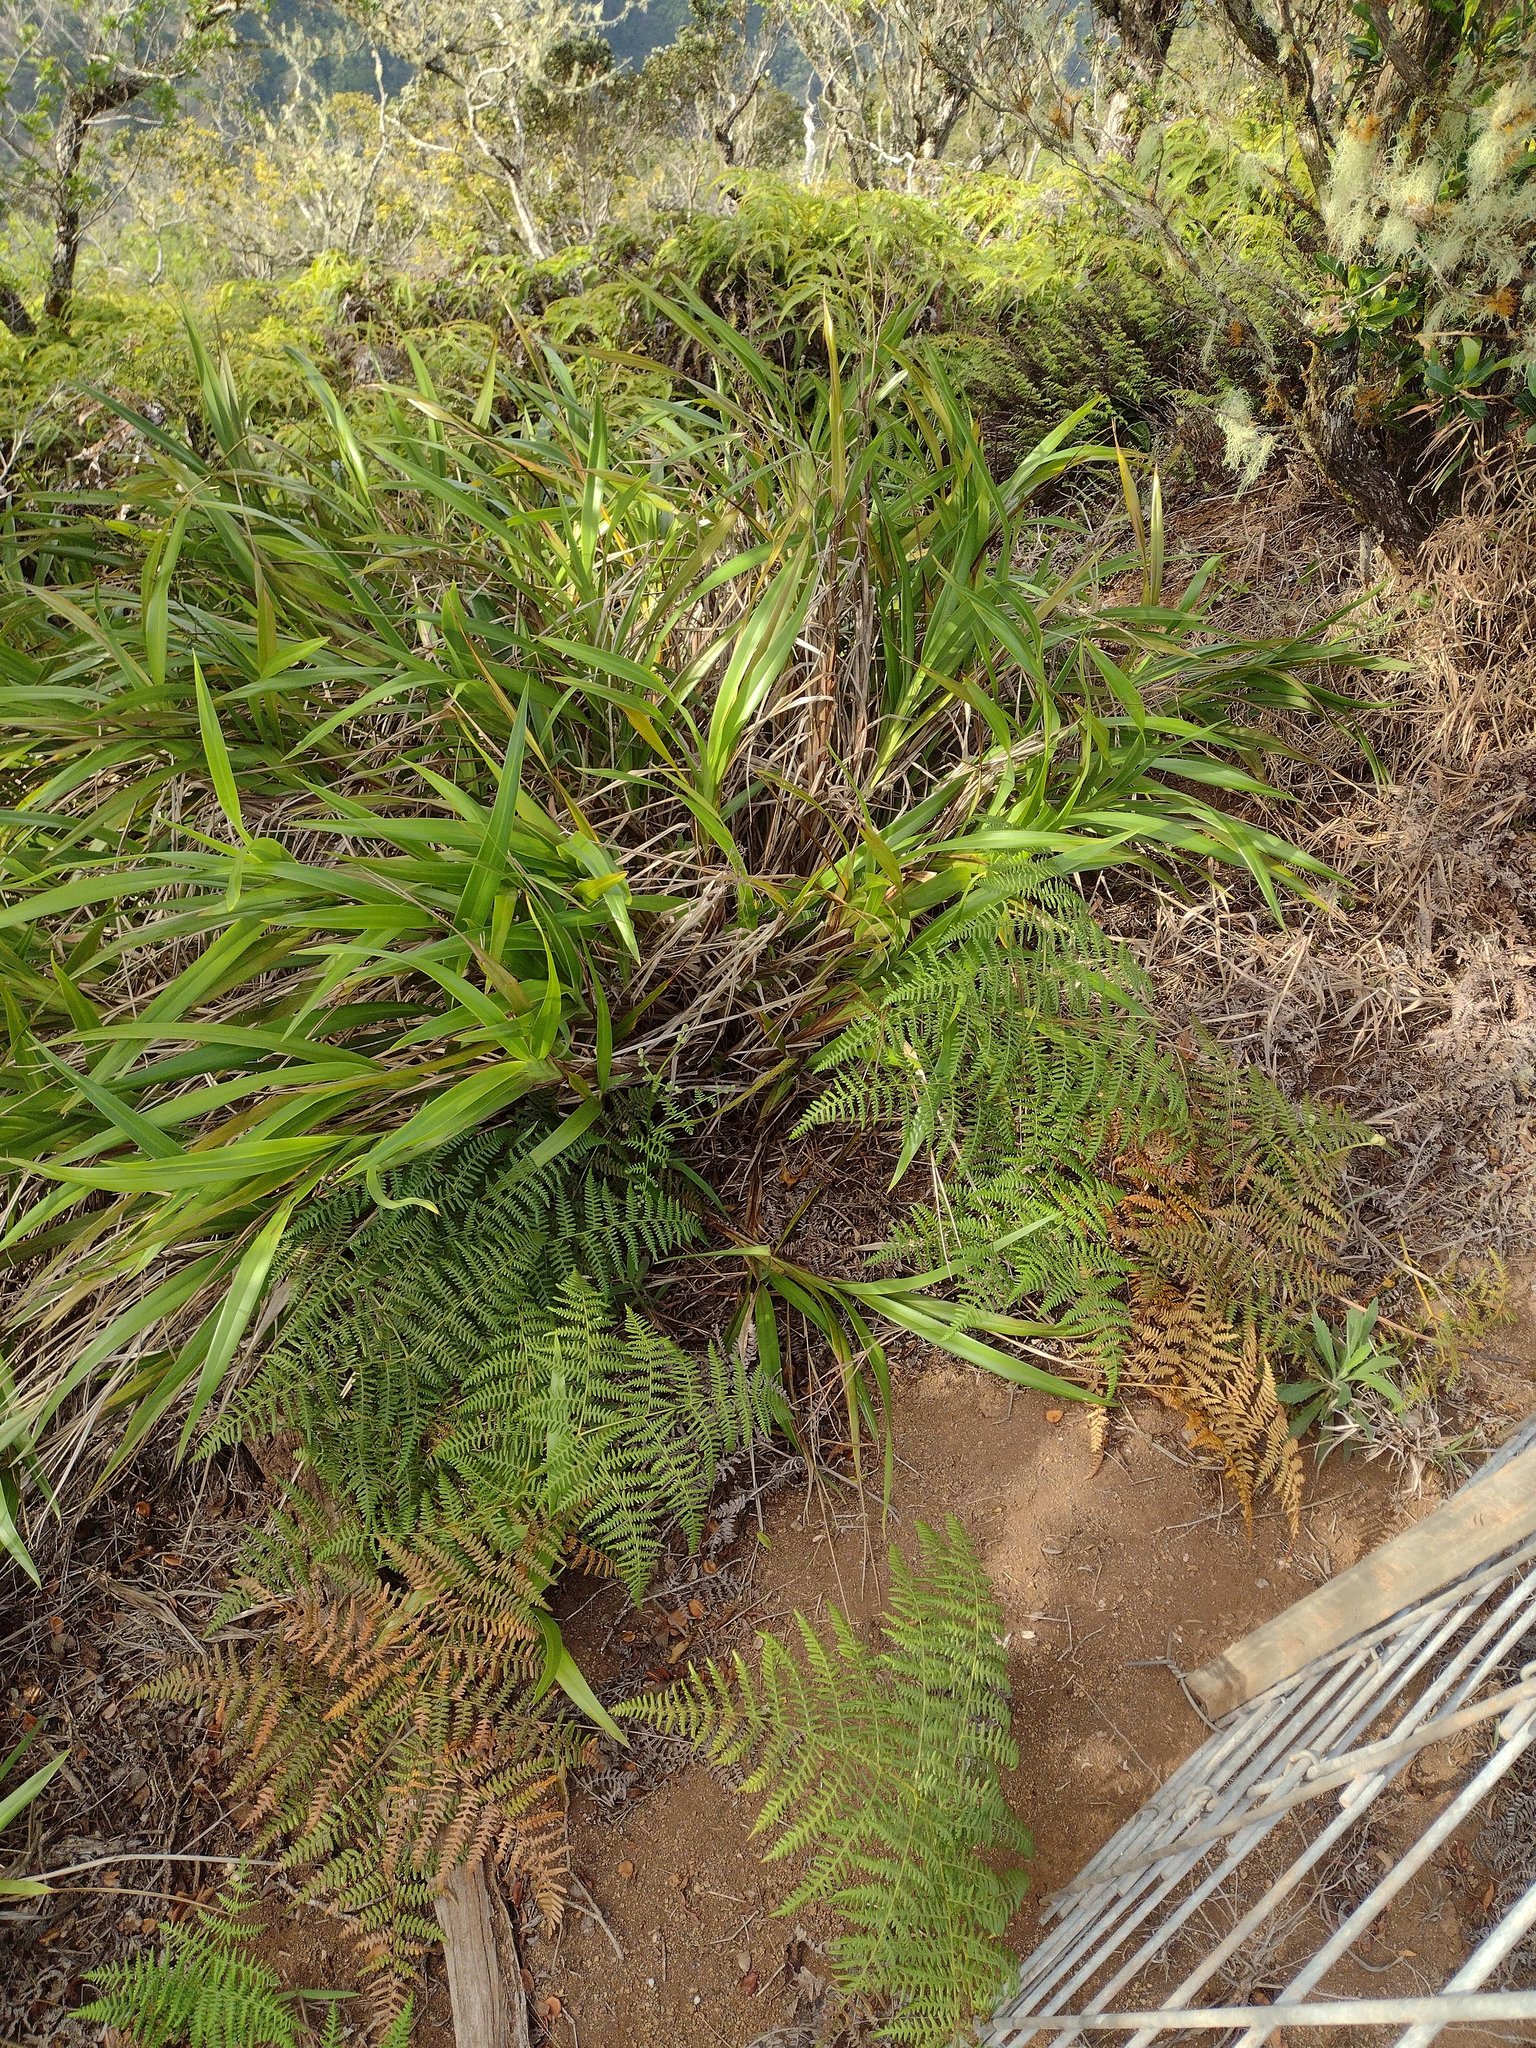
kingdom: Plantae
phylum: Tracheophyta
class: Liliopsida
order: Asparagales
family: Asphodelaceae
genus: Dianella
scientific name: Dianella sandwicensis
